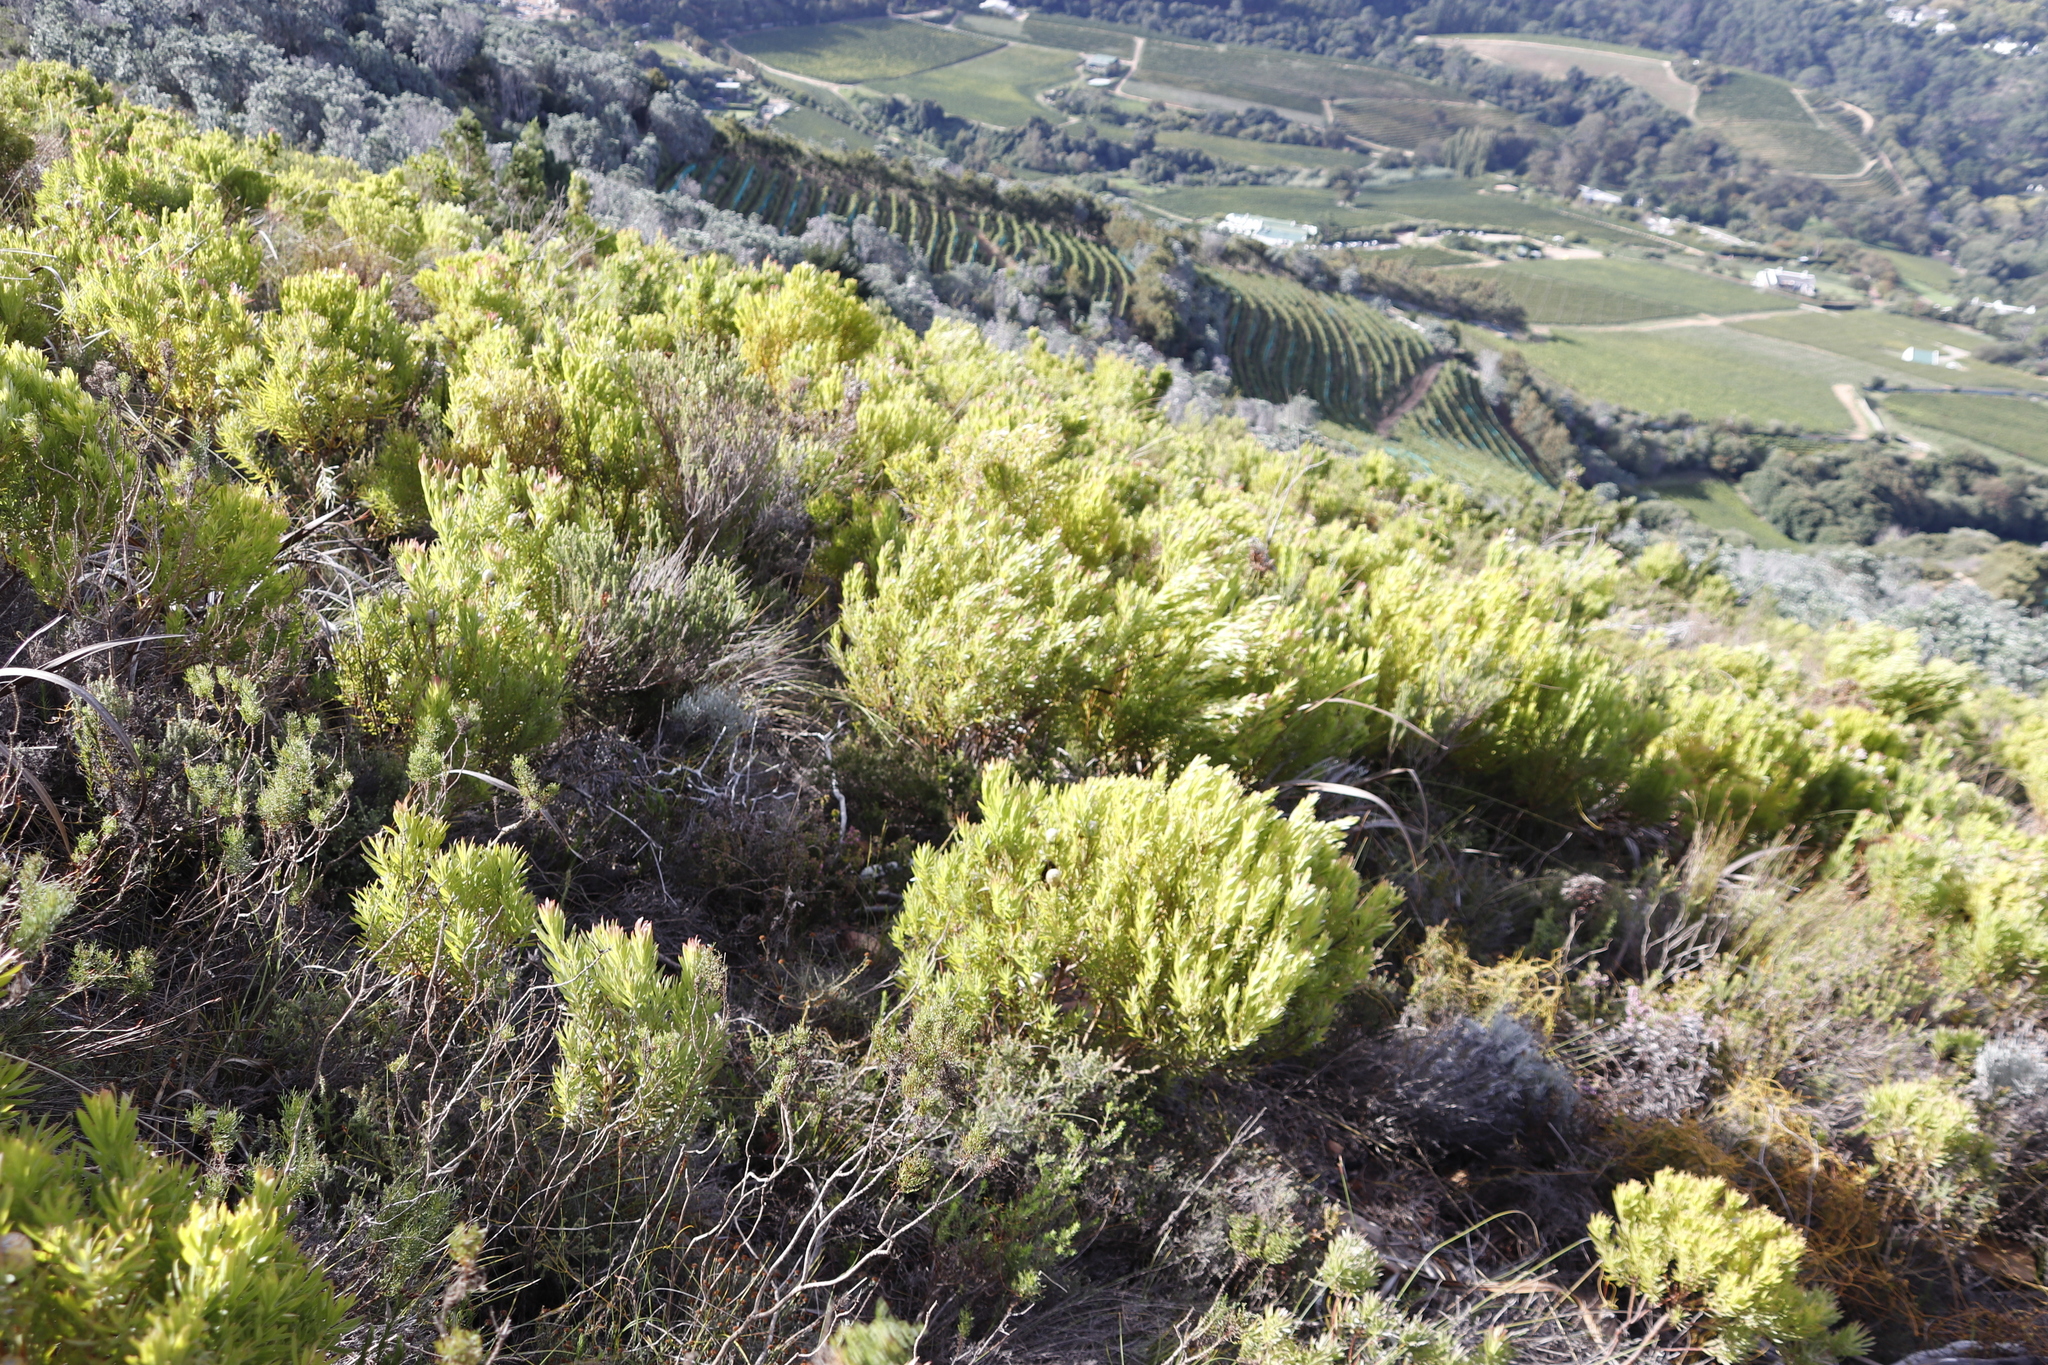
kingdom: Plantae
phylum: Tracheophyta
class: Magnoliopsida
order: Proteales
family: Proteaceae
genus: Leucadendron
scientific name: Leucadendron xanthoconus
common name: Sickle-leaf conebush
